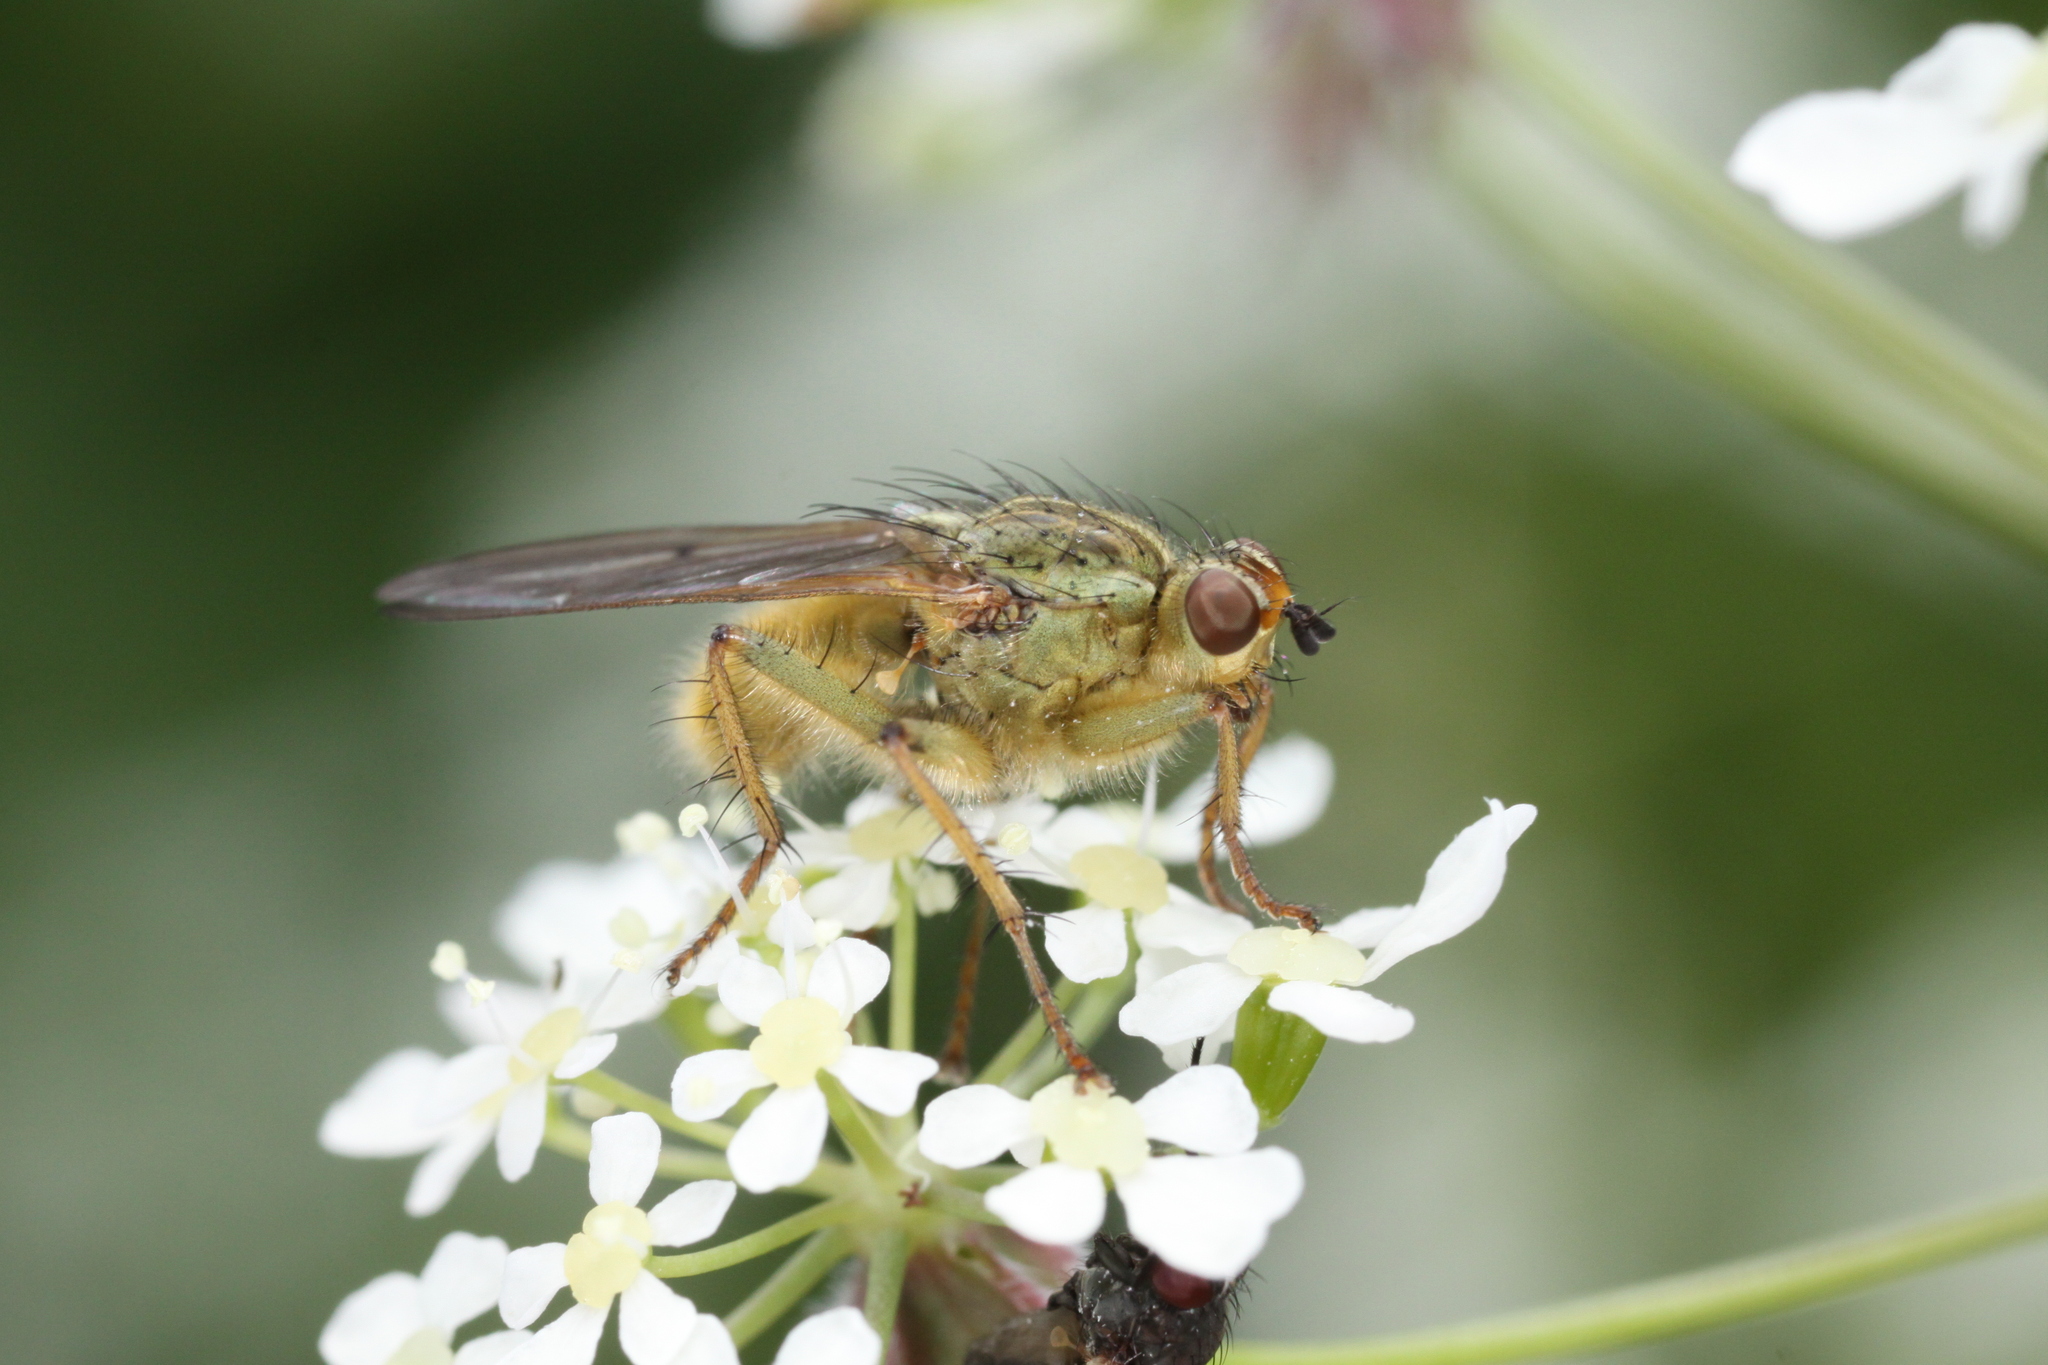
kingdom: Animalia
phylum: Arthropoda
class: Insecta
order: Diptera
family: Scathophagidae
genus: Scathophaga
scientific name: Scathophaga stercoraria
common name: Yellow dung fly
